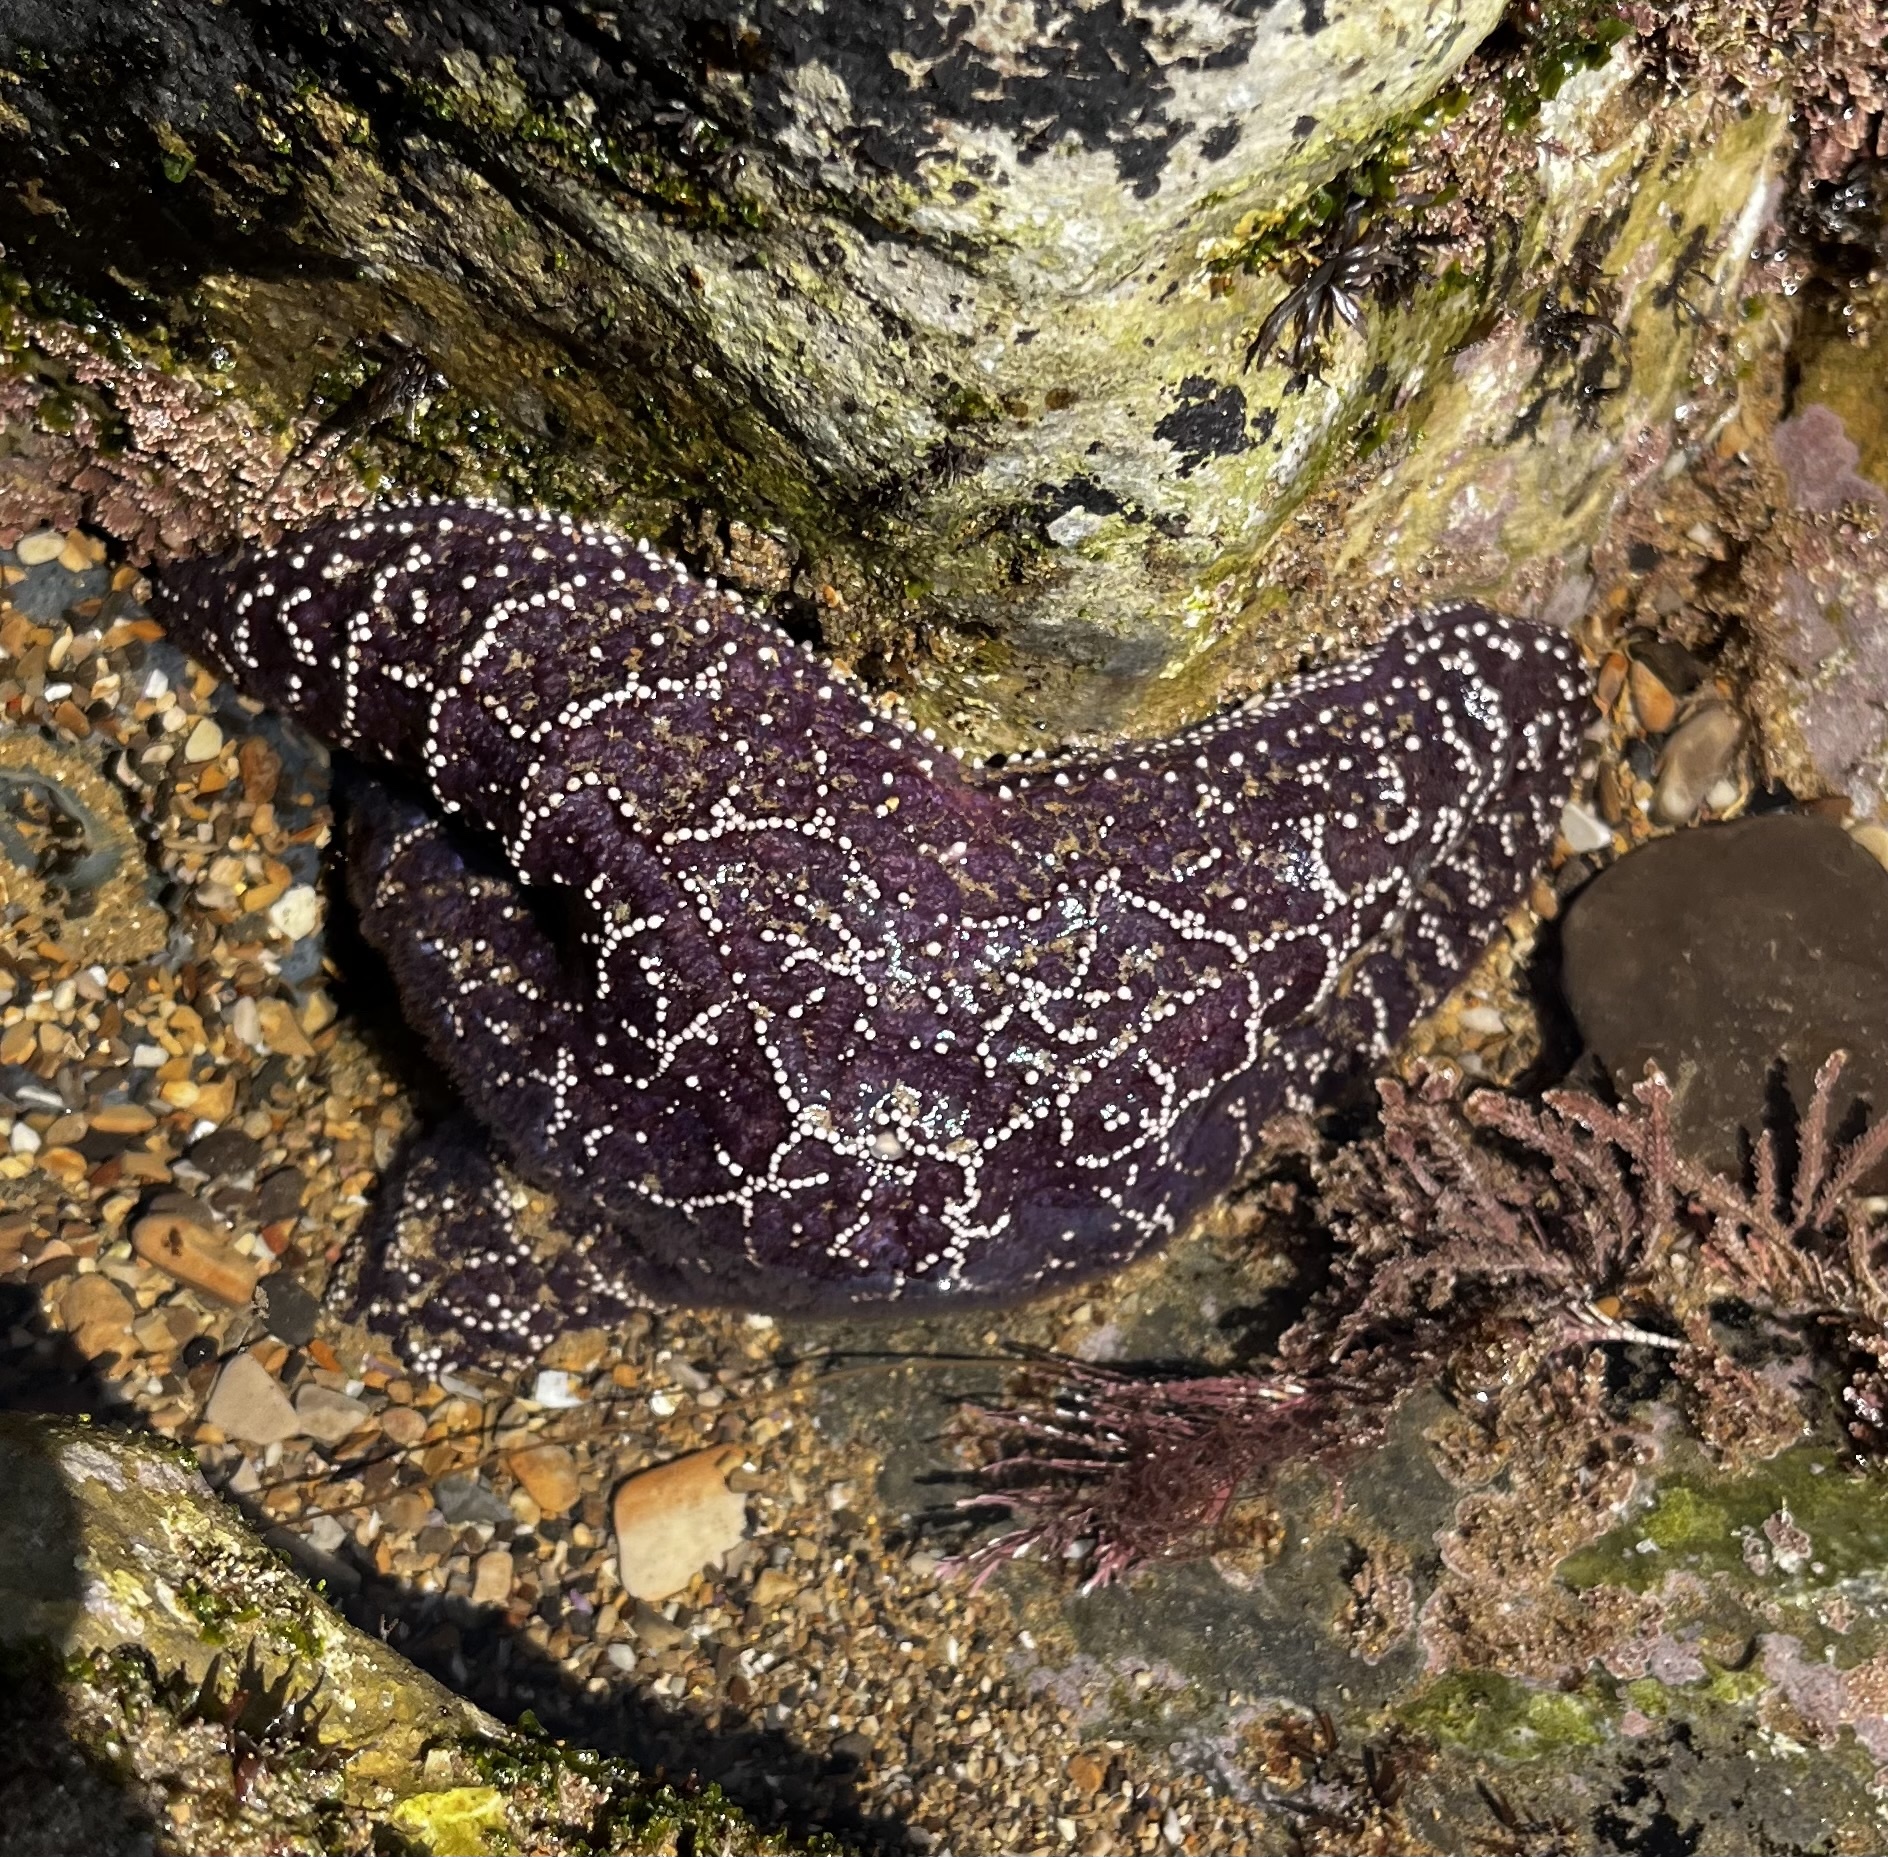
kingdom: Animalia
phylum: Echinodermata
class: Asteroidea
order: Forcipulatida
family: Asteriidae
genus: Pisaster
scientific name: Pisaster ochraceus
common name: Ochre stars
